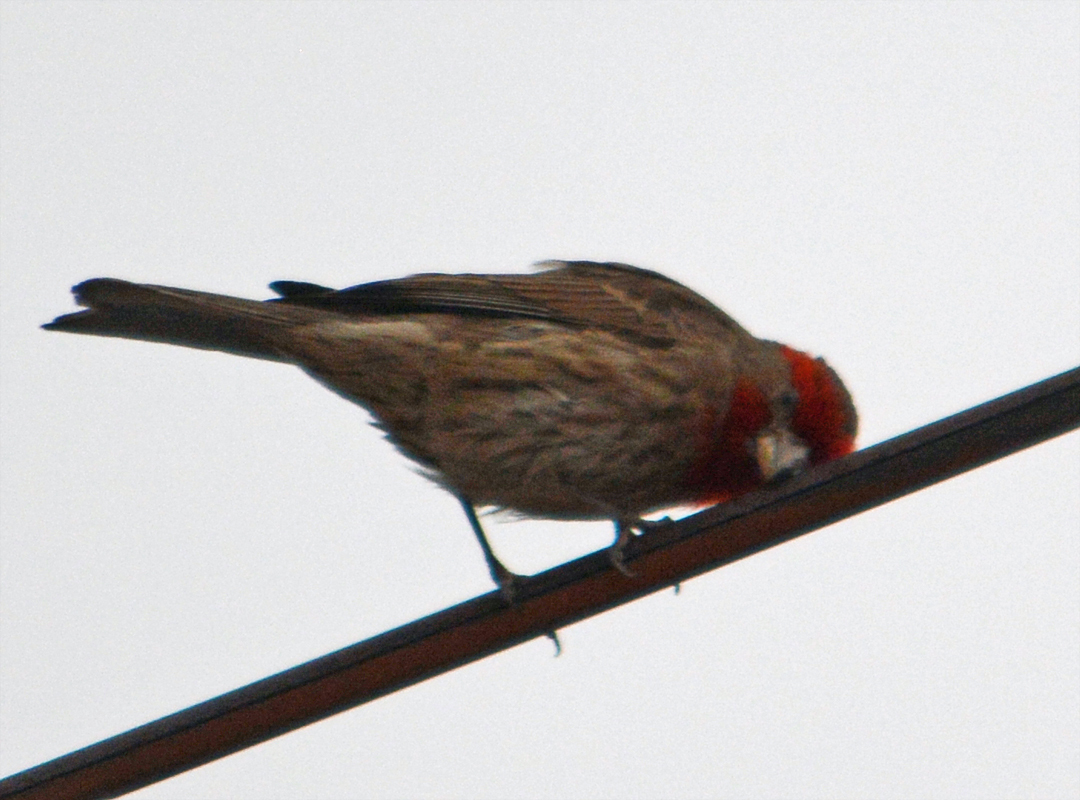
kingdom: Animalia
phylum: Chordata
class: Aves
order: Passeriformes
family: Fringillidae
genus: Haemorhous
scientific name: Haemorhous mexicanus
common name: House finch
